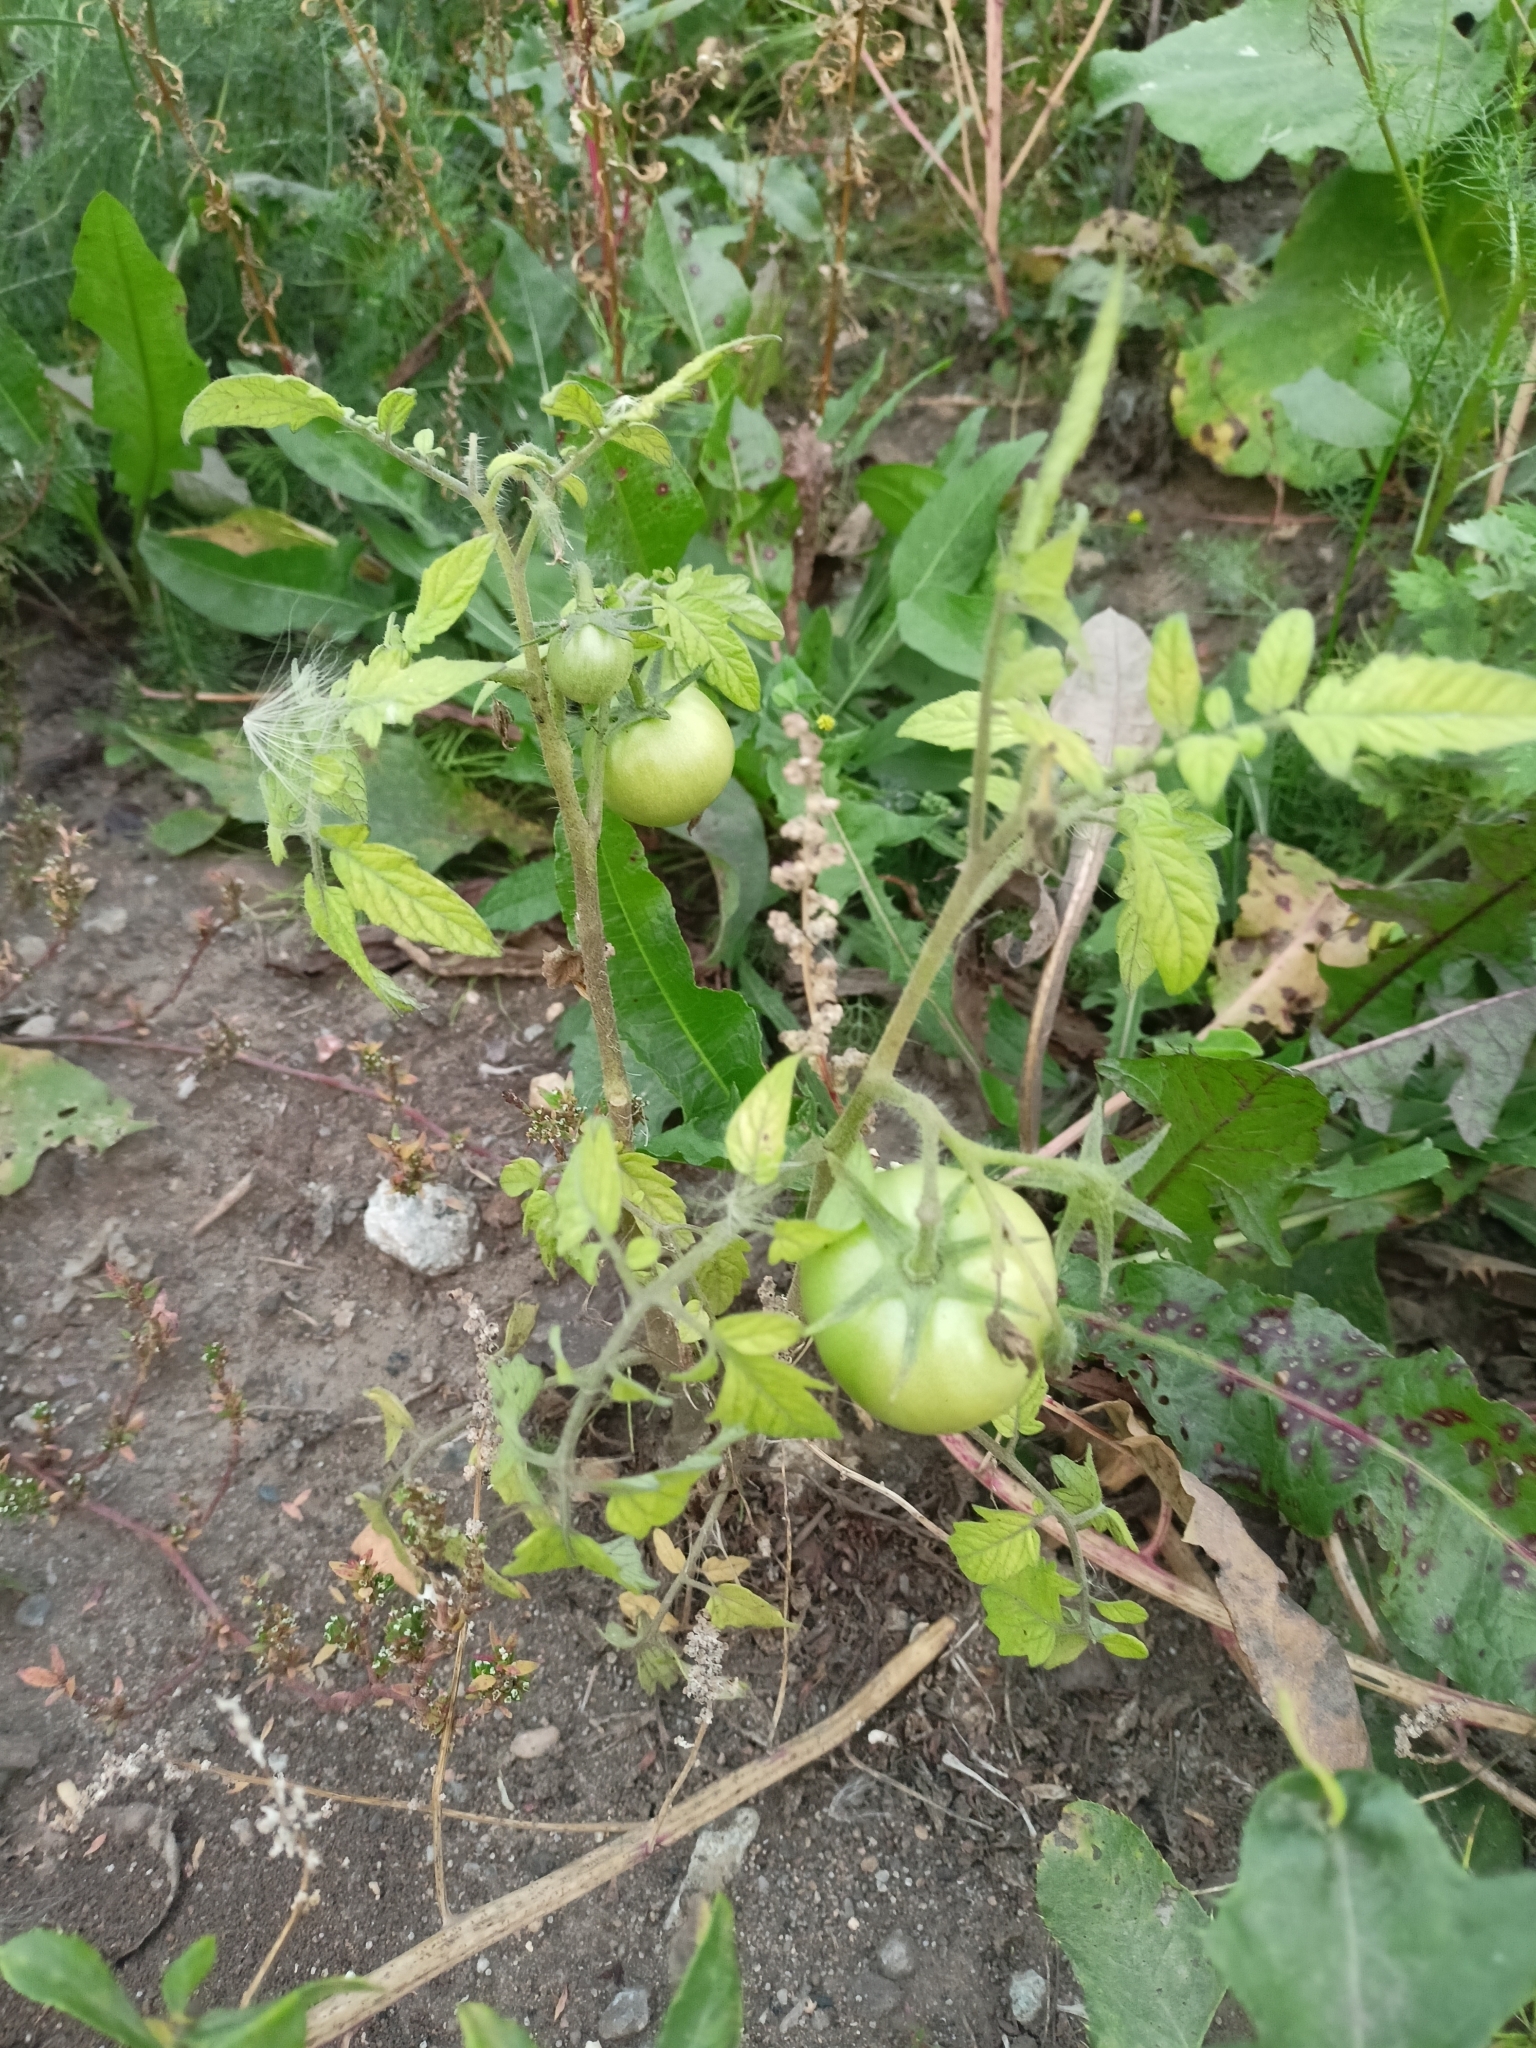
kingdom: Plantae
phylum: Tracheophyta
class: Magnoliopsida
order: Solanales
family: Solanaceae
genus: Solanum
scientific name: Solanum lycopersicum
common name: Garden tomato
